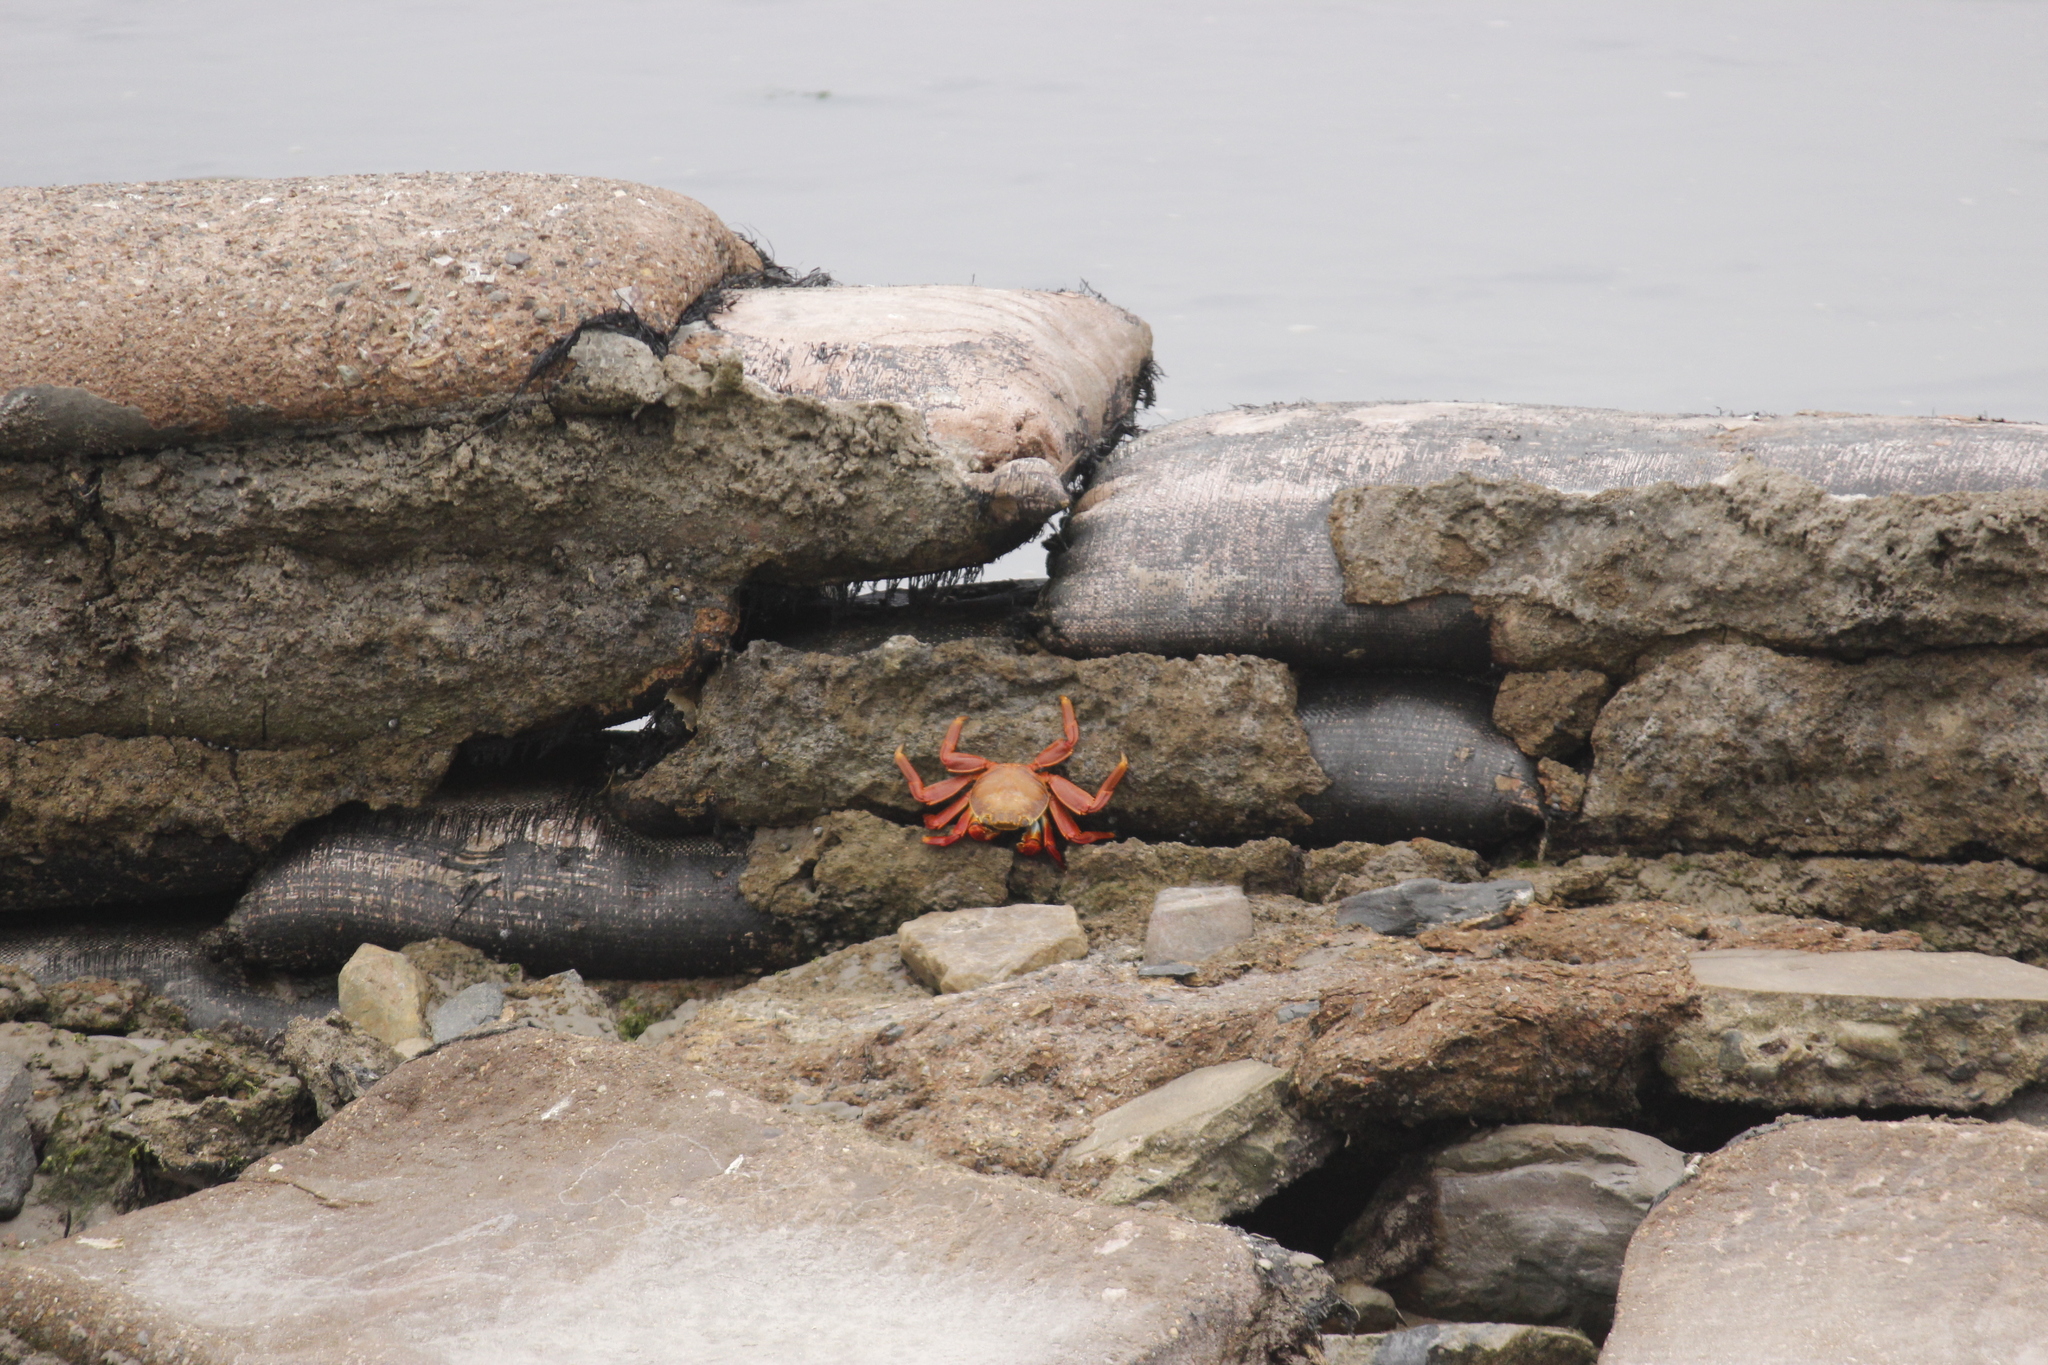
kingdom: Animalia
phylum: Arthropoda
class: Malacostraca
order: Decapoda
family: Grapsidae
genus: Grapsus
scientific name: Grapsus grapsus
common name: Sally lightfoot
